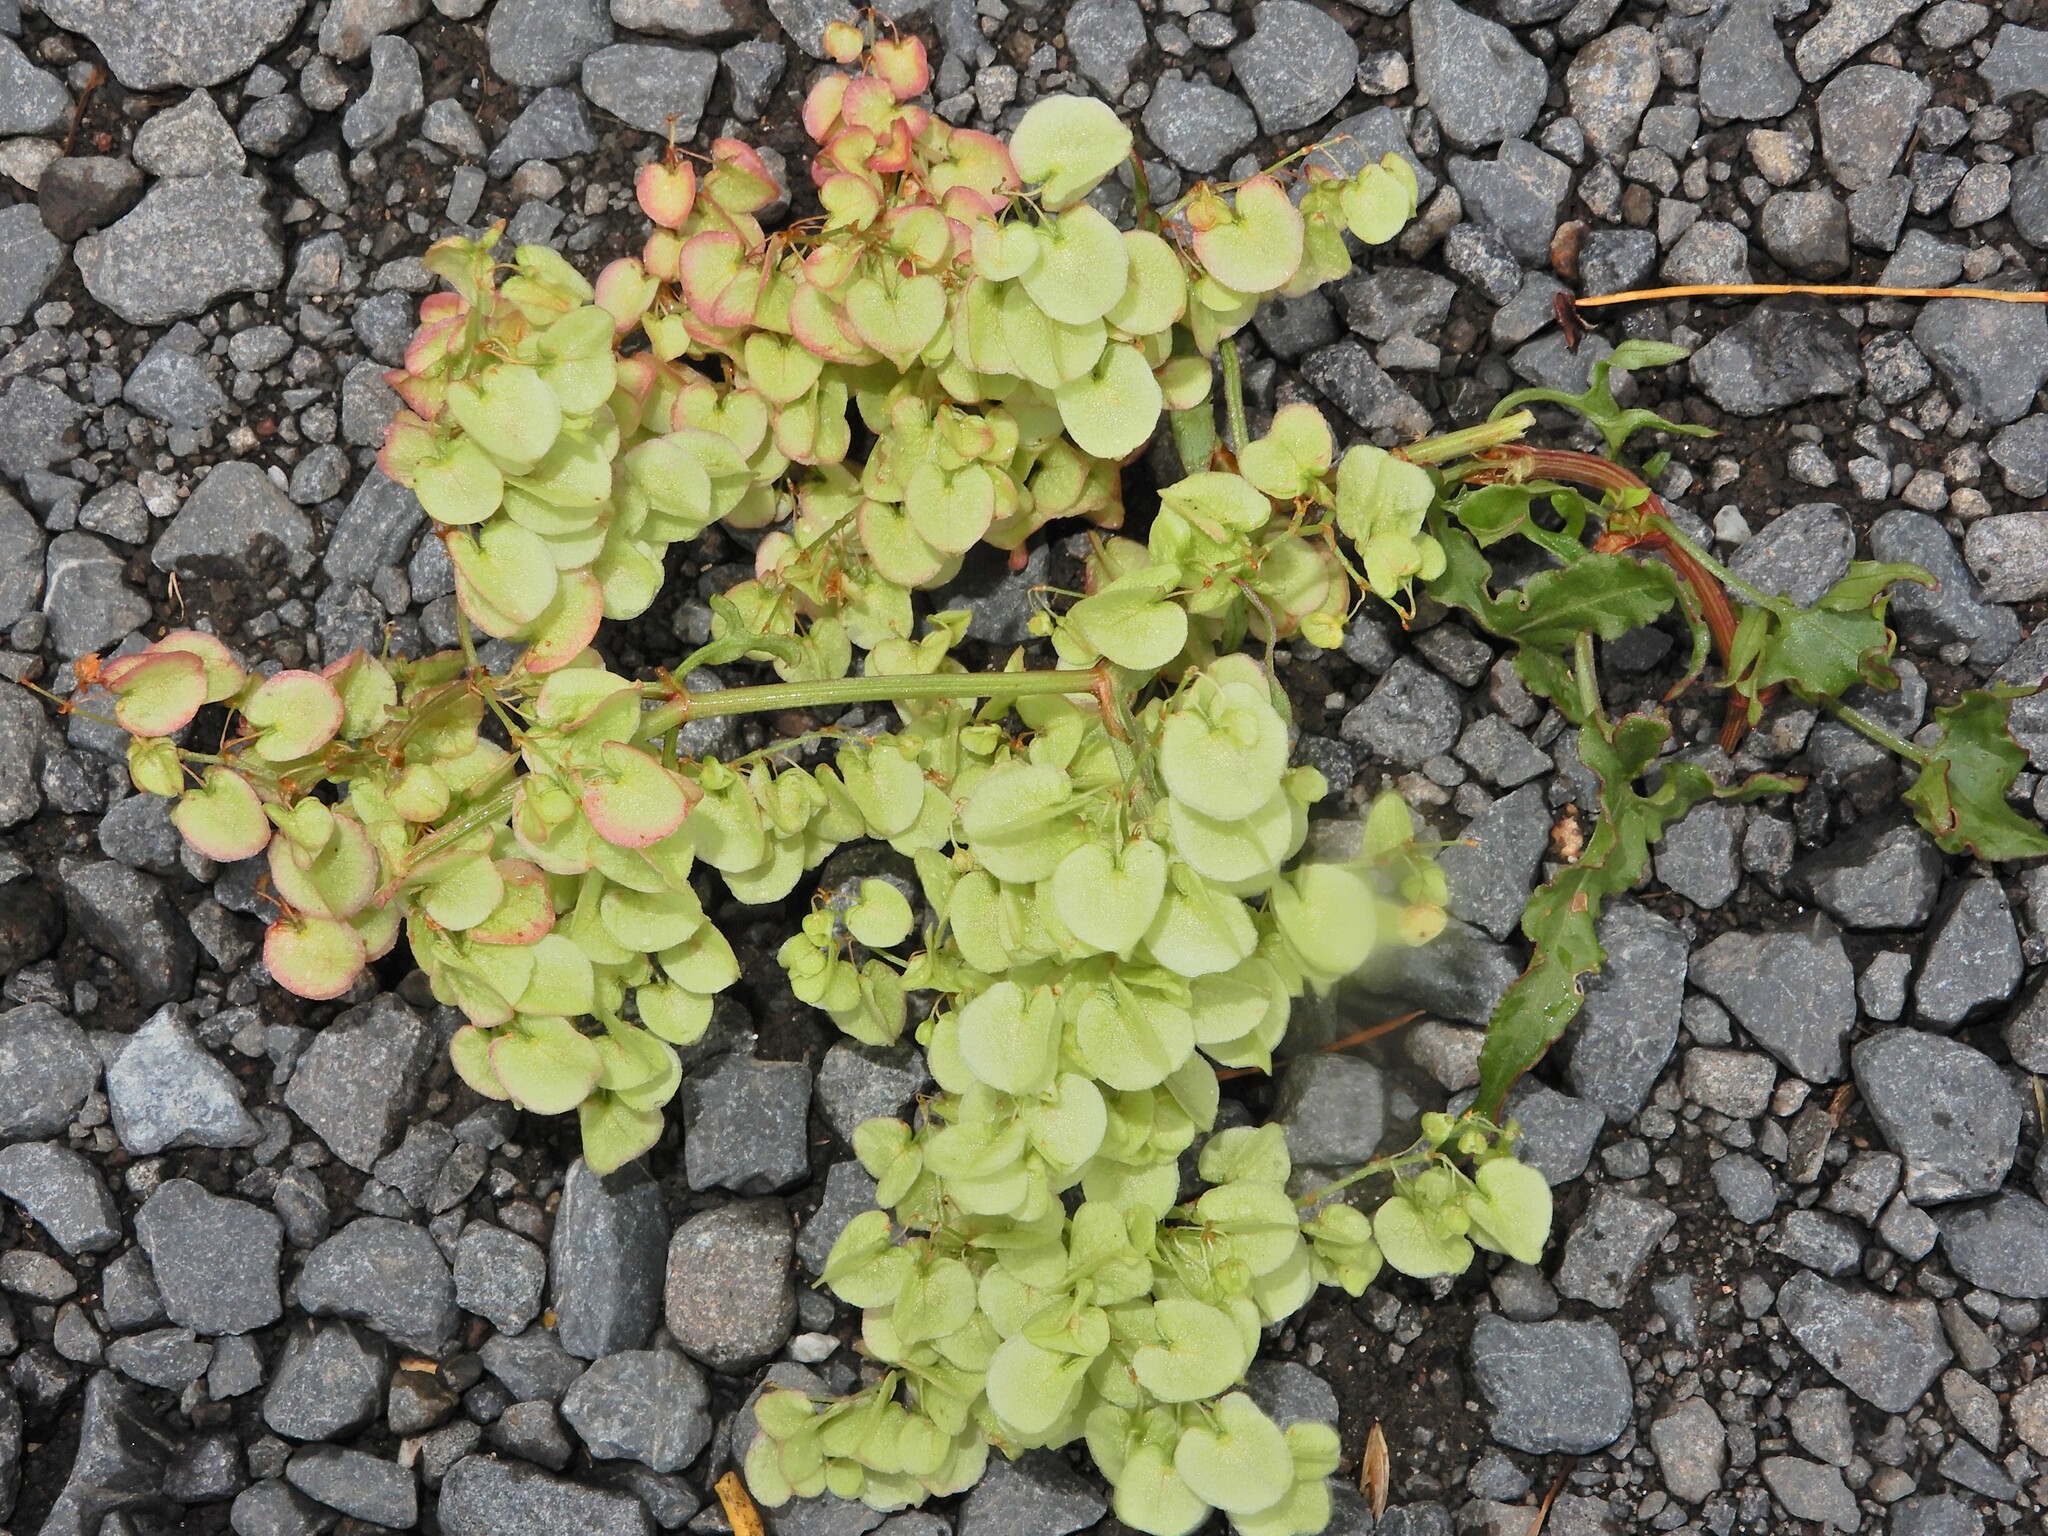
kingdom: Plantae
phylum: Tracheophyta
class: Magnoliopsida
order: Caryophyllales
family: Polygonaceae
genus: Rumex
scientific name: Rumex sagittatus
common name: Climbing dock
